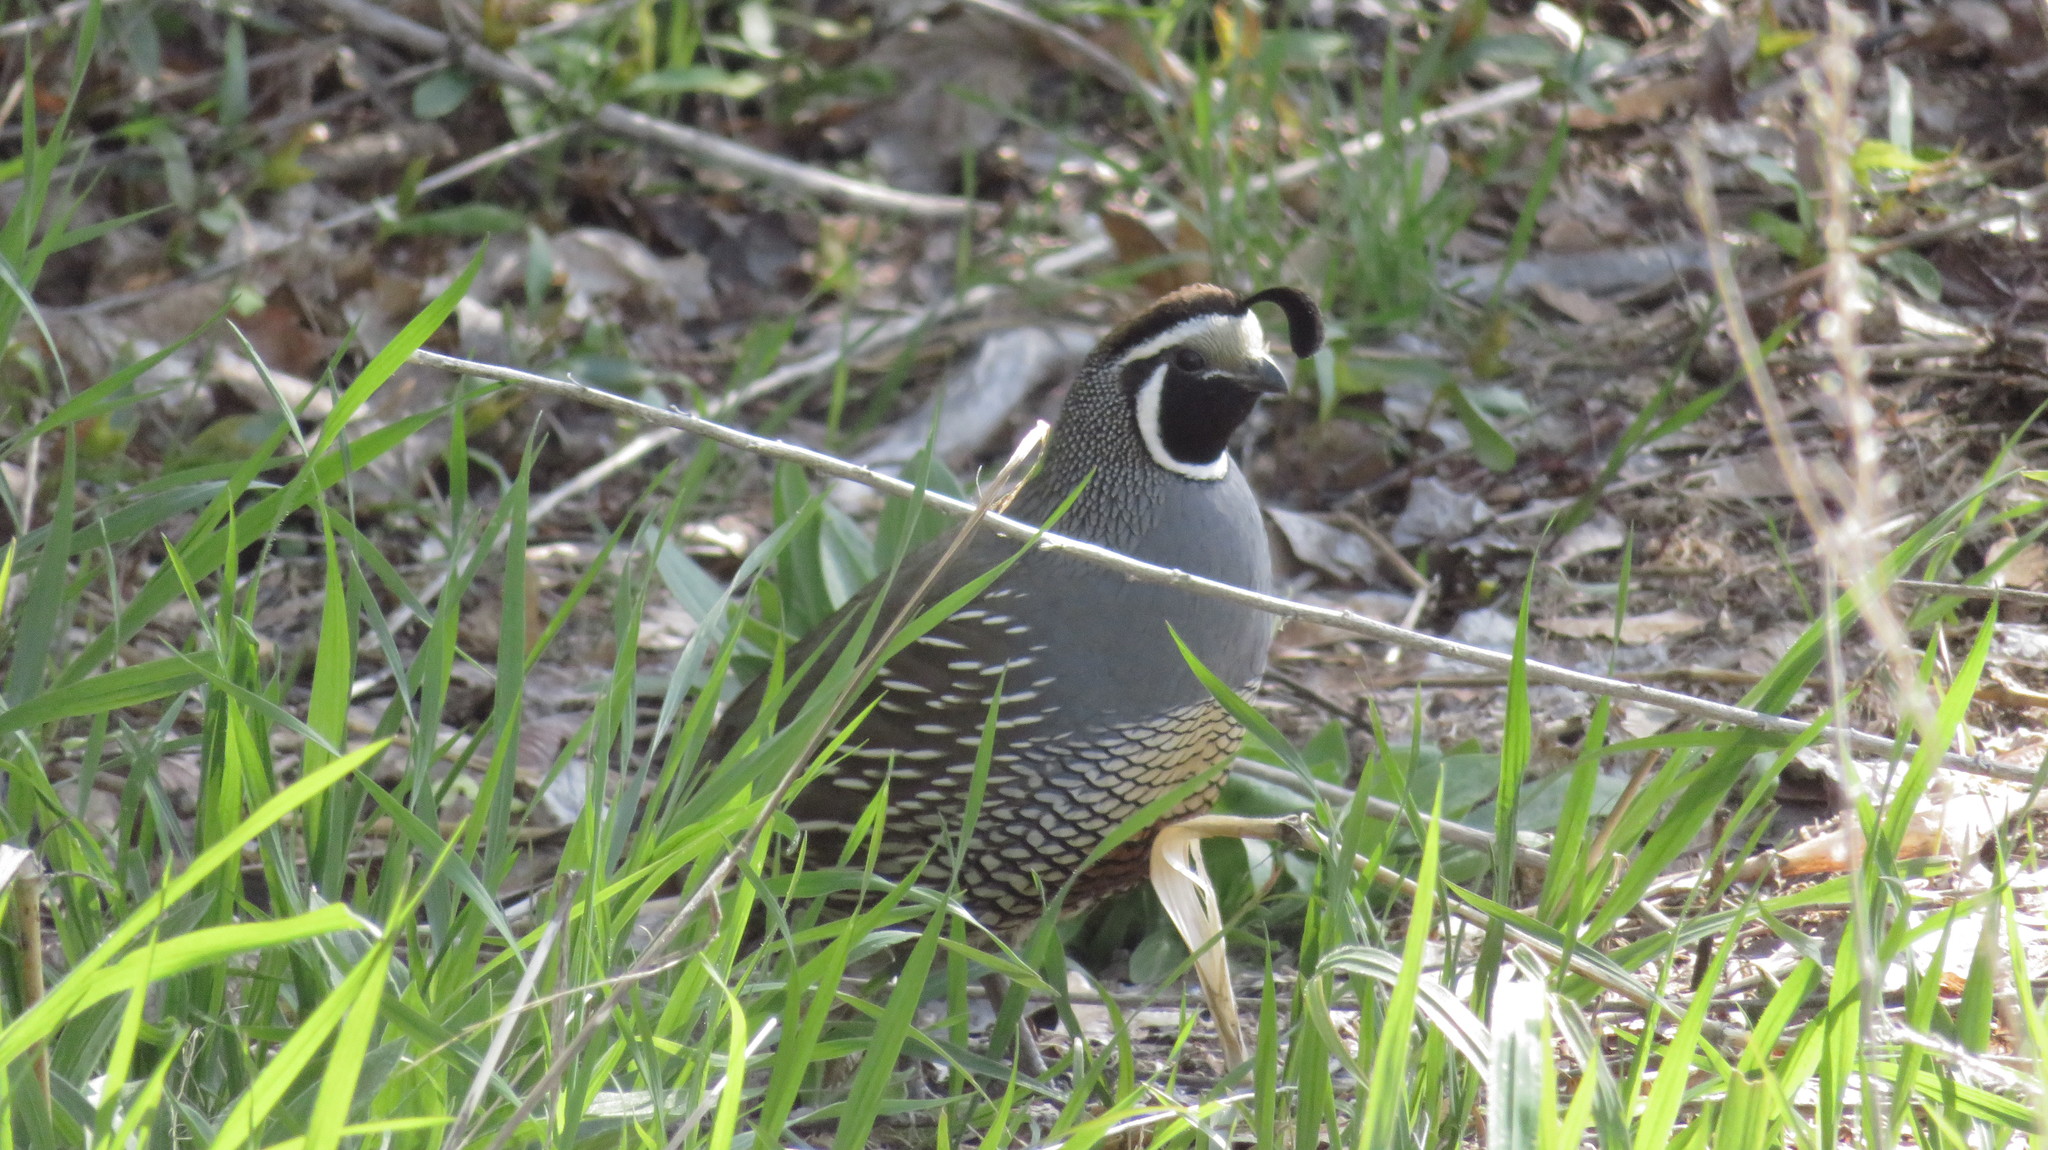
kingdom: Animalia
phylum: Chordata
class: Aves
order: Galliformes
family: Odontophoridae
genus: Callipepla
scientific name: Callipepla californica
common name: California quail
